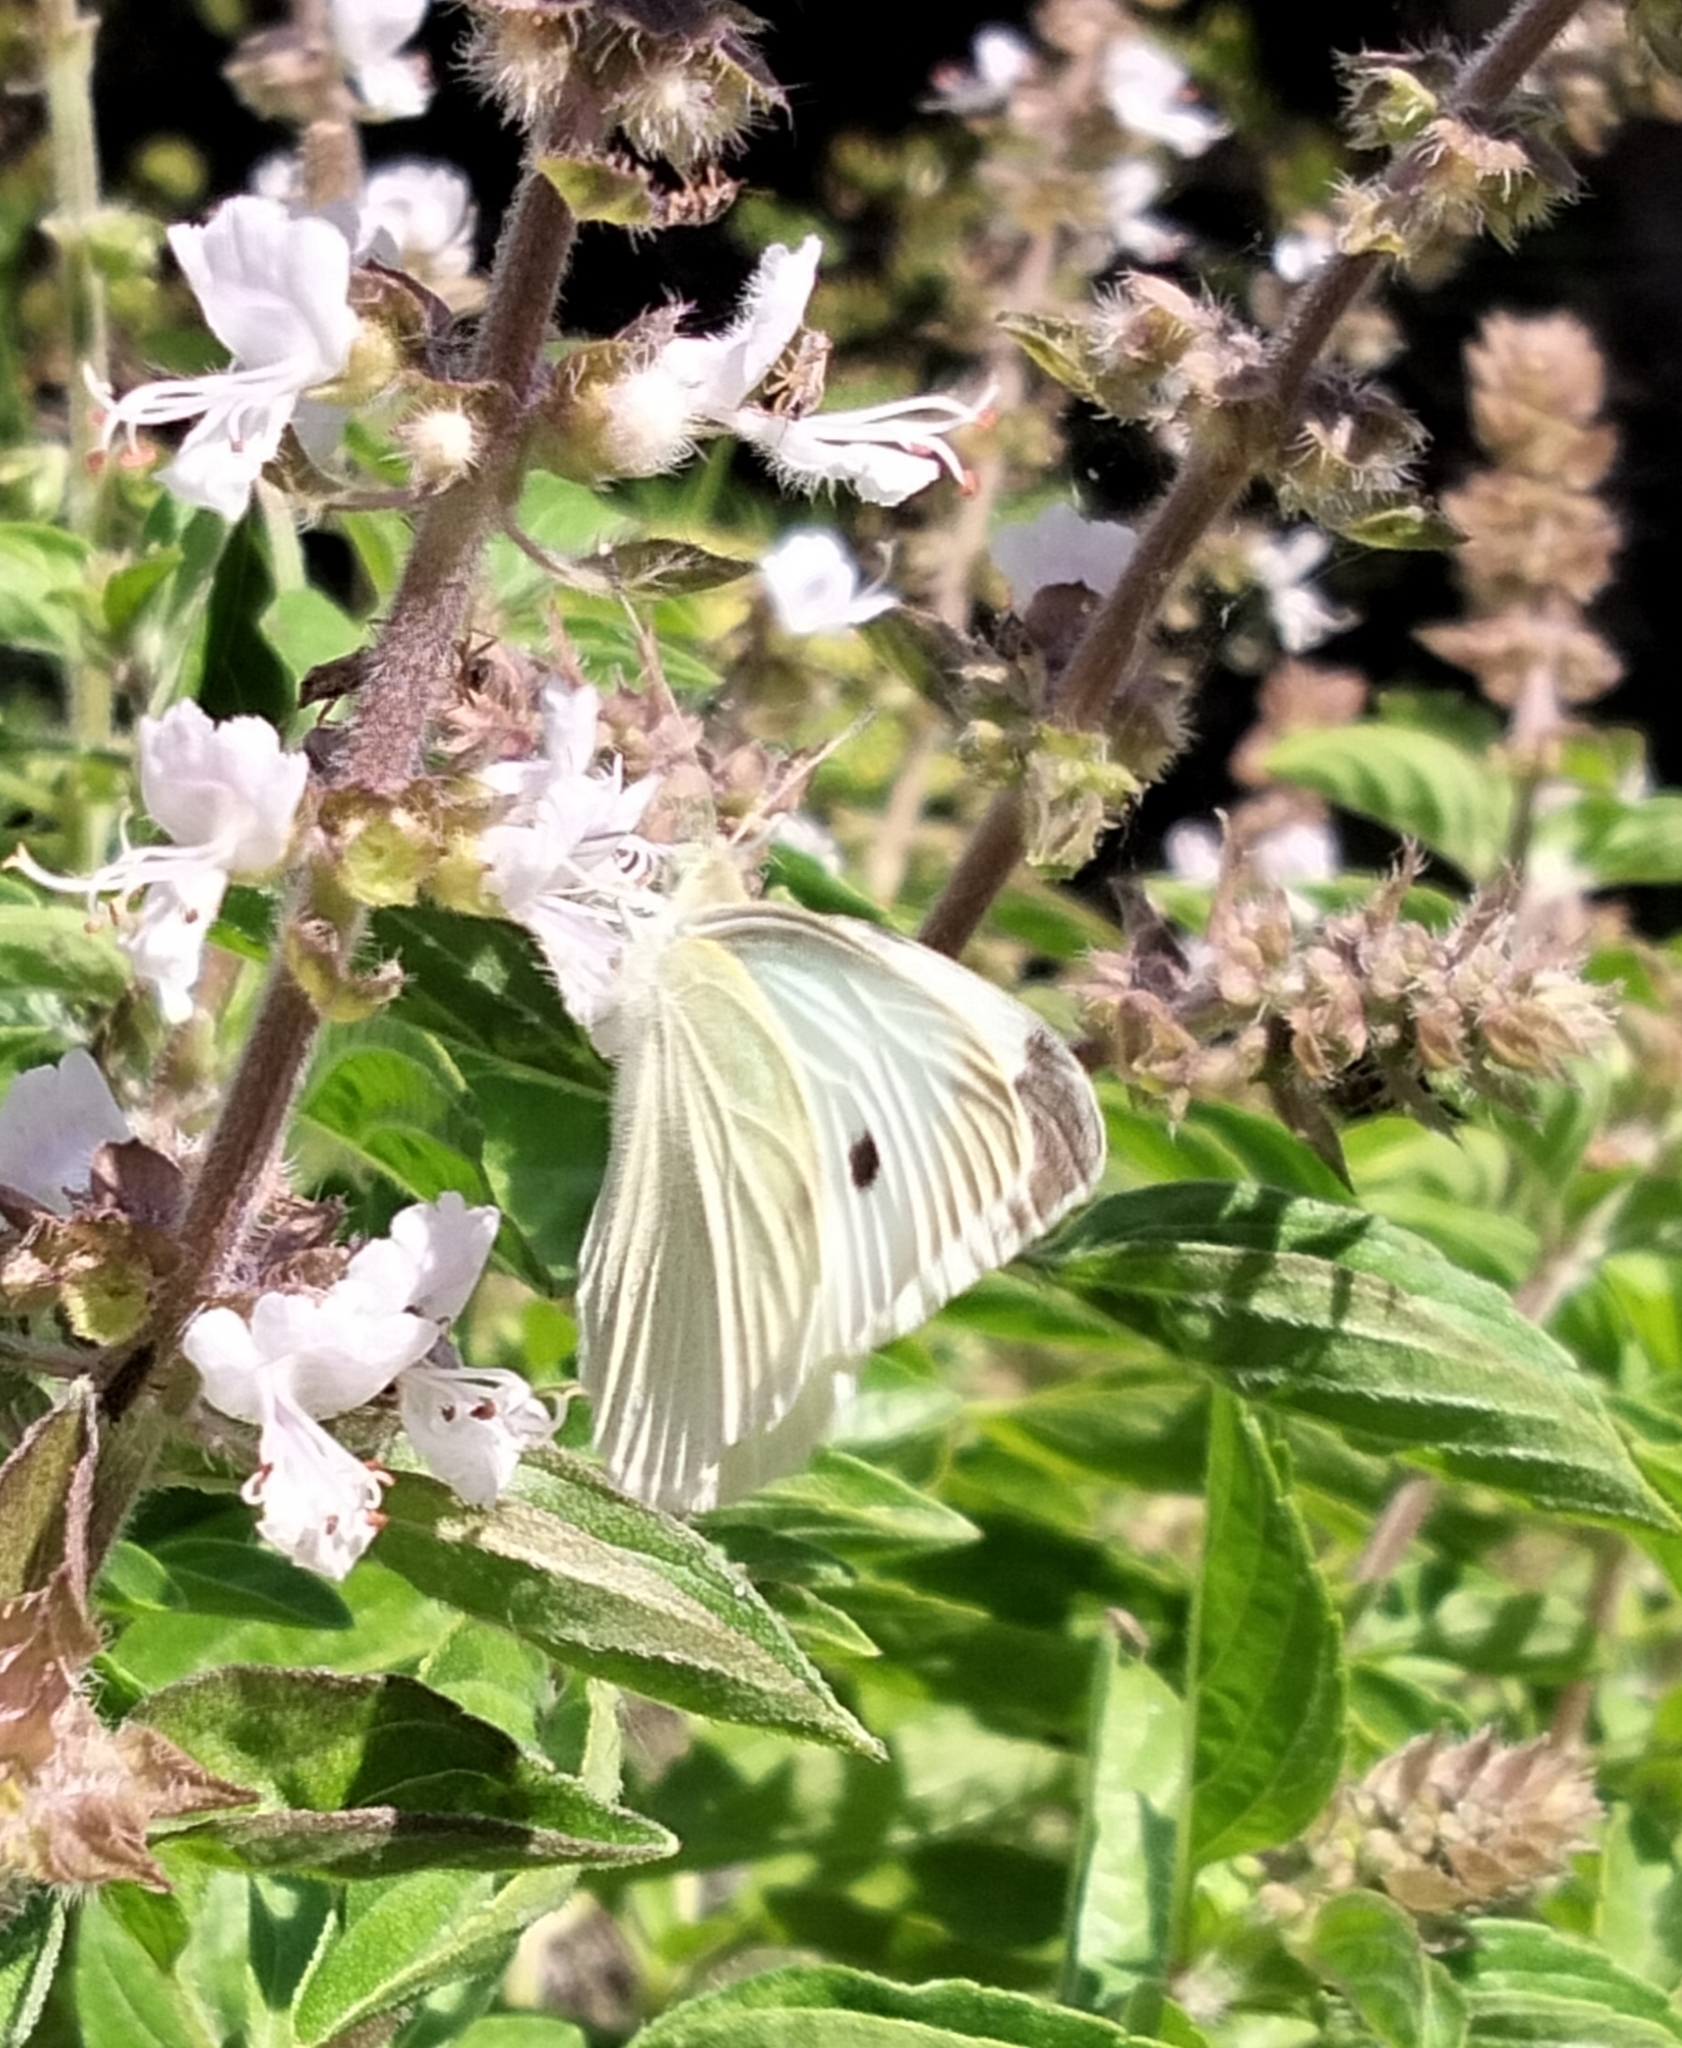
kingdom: Animalia
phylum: Arthropoda
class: Insecta
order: Lepidoptera
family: Pieridae
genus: Pieris
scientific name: Pieris rapae
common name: Small white
